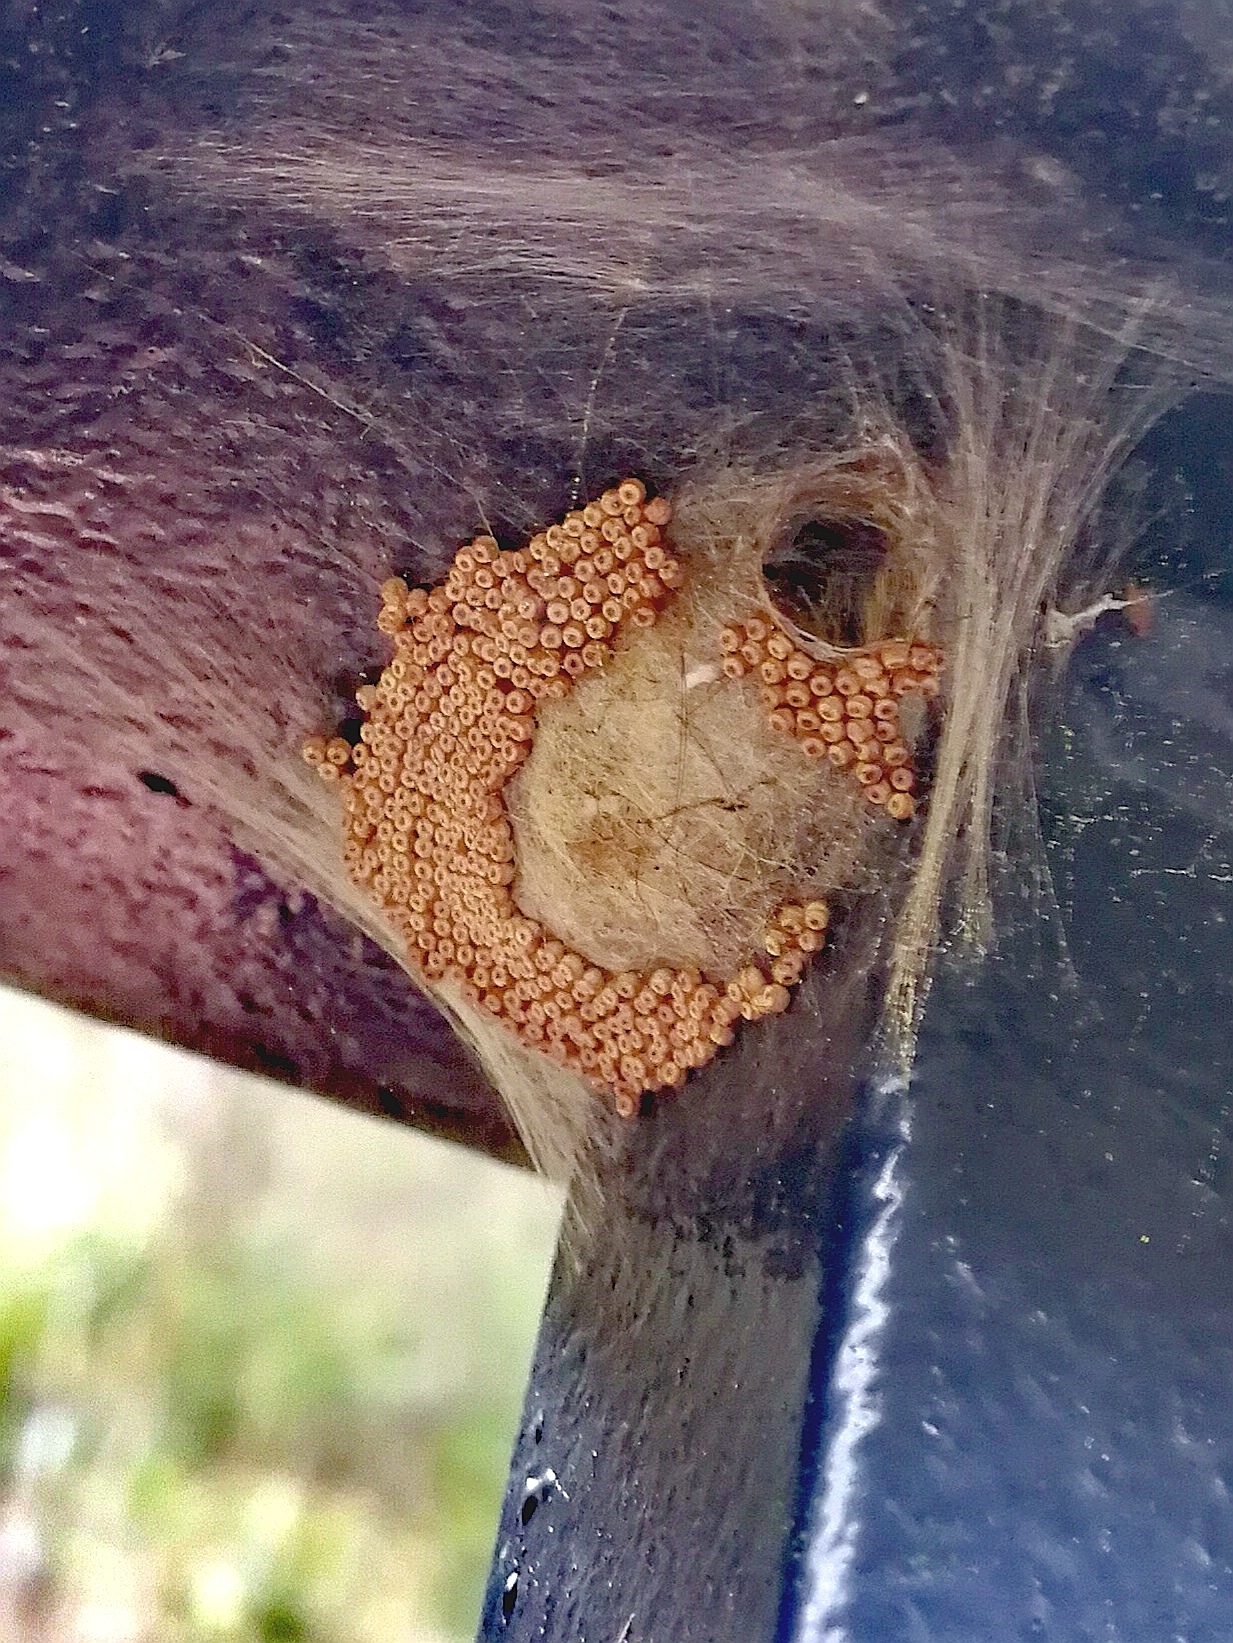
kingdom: Animalia
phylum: Arthropoda
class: Insecta
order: Lepidoptera
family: Erebidae
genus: Orgyia
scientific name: Orgyia antiqua
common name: Vapourer
